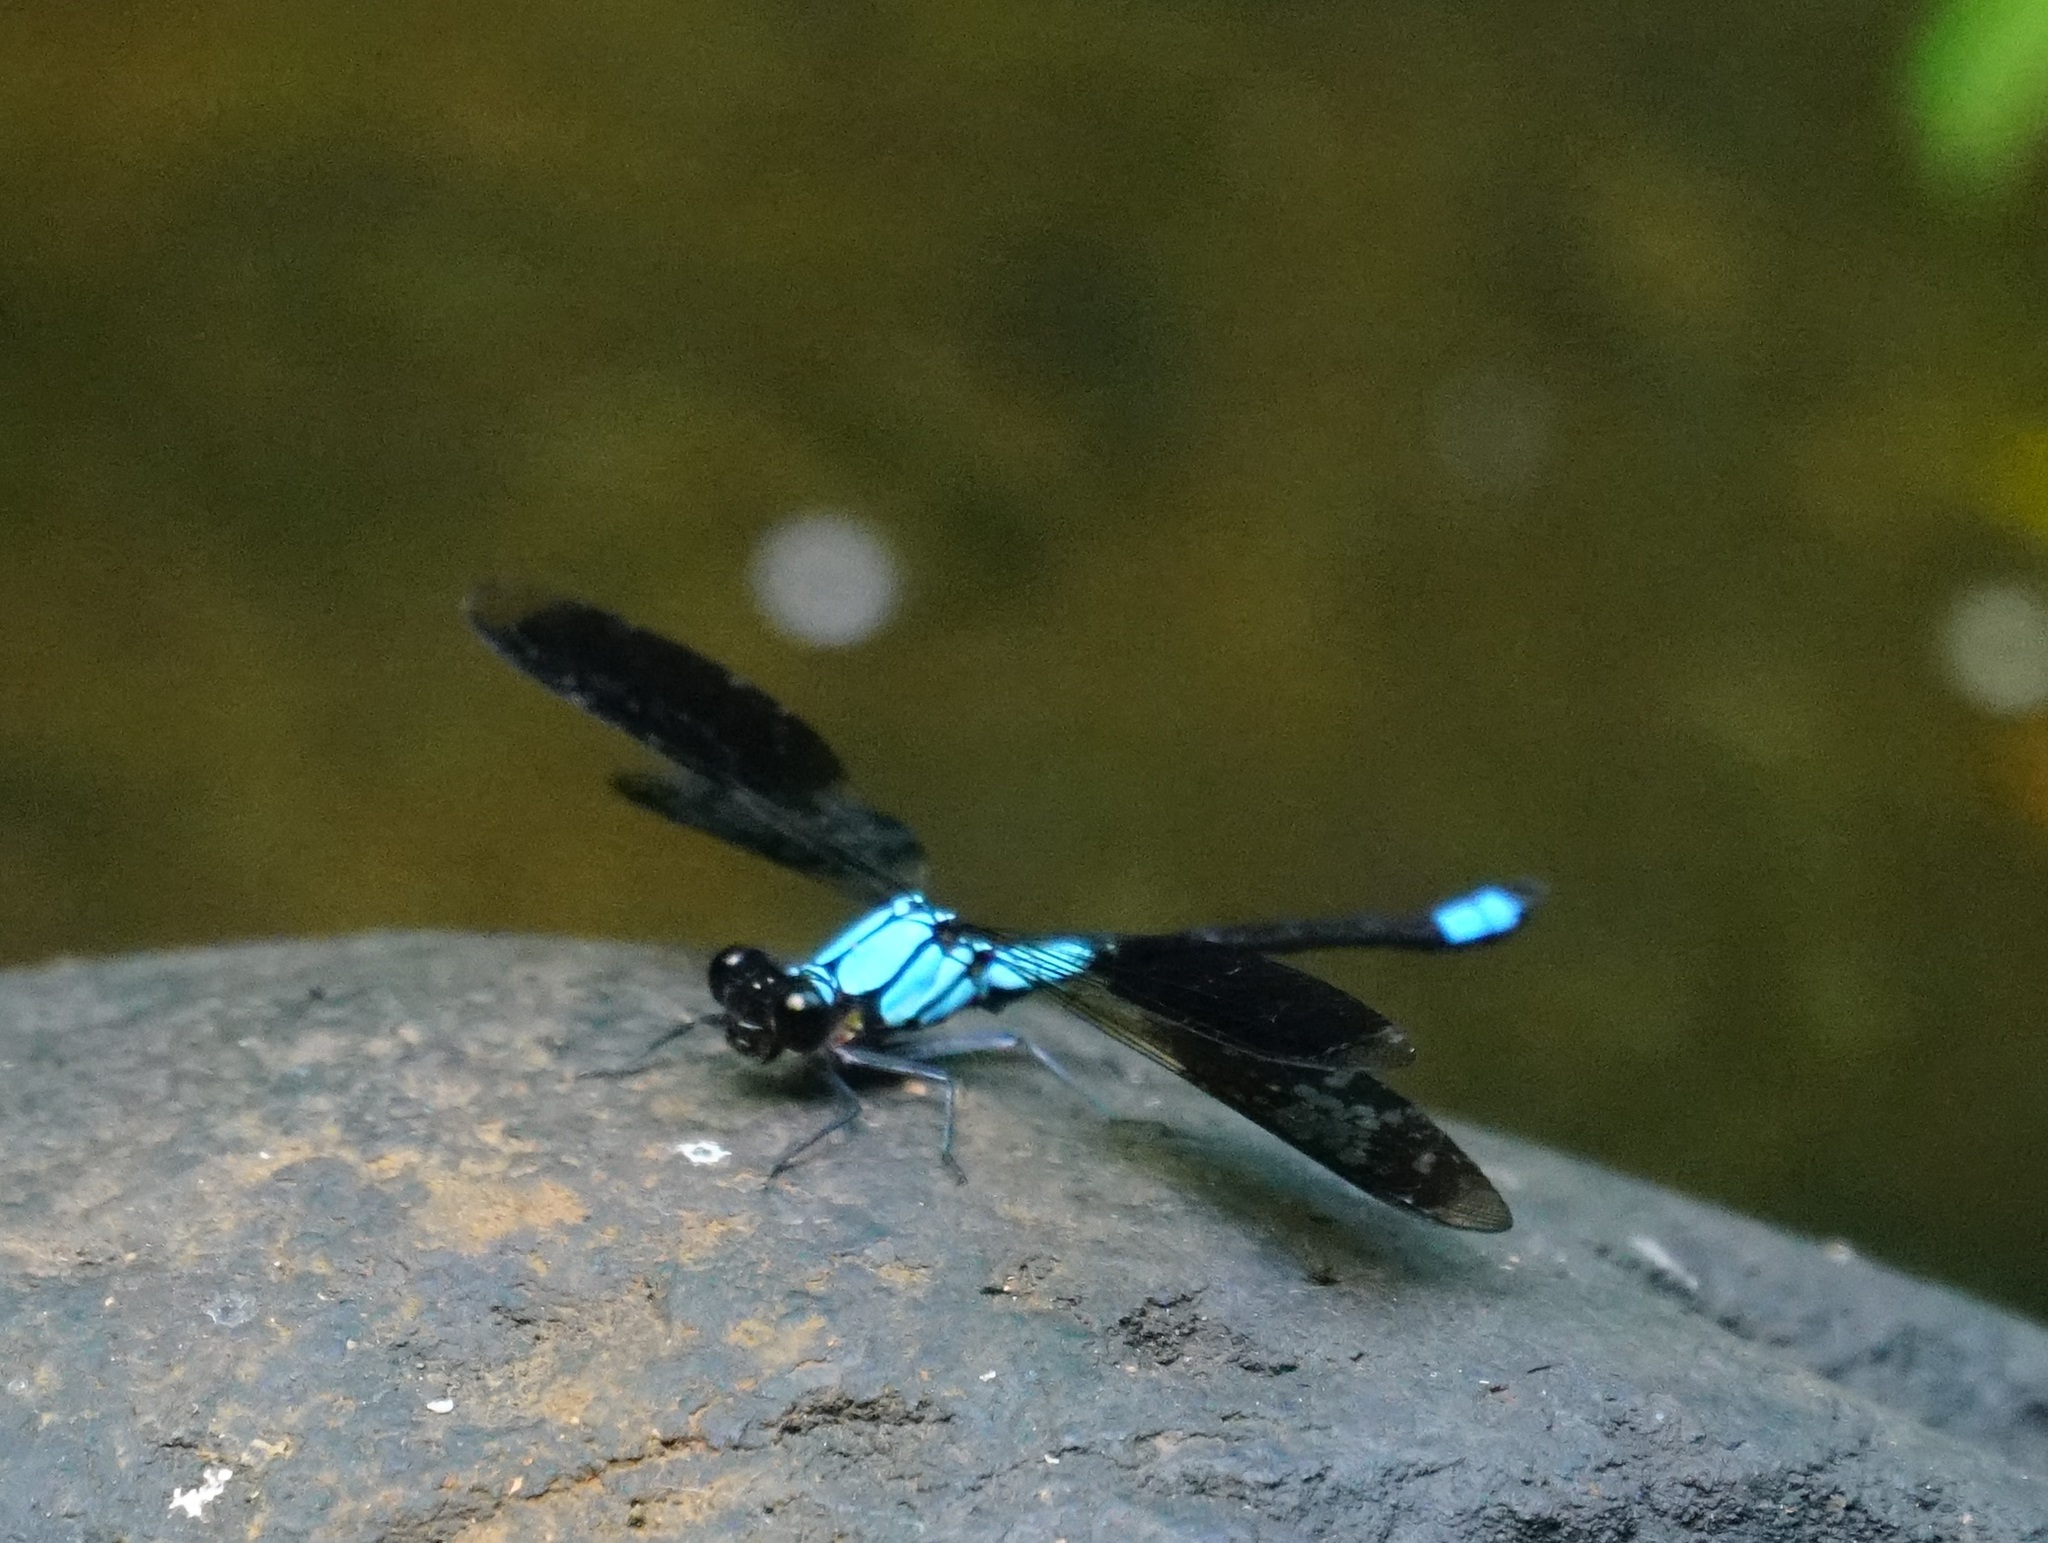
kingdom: Animalia
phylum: Arthropoda
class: Insecta
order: Odonata
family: Lestoideidae
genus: Diphlebia
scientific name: Diphlebia euphoeoides
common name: Tropical rockmaster
